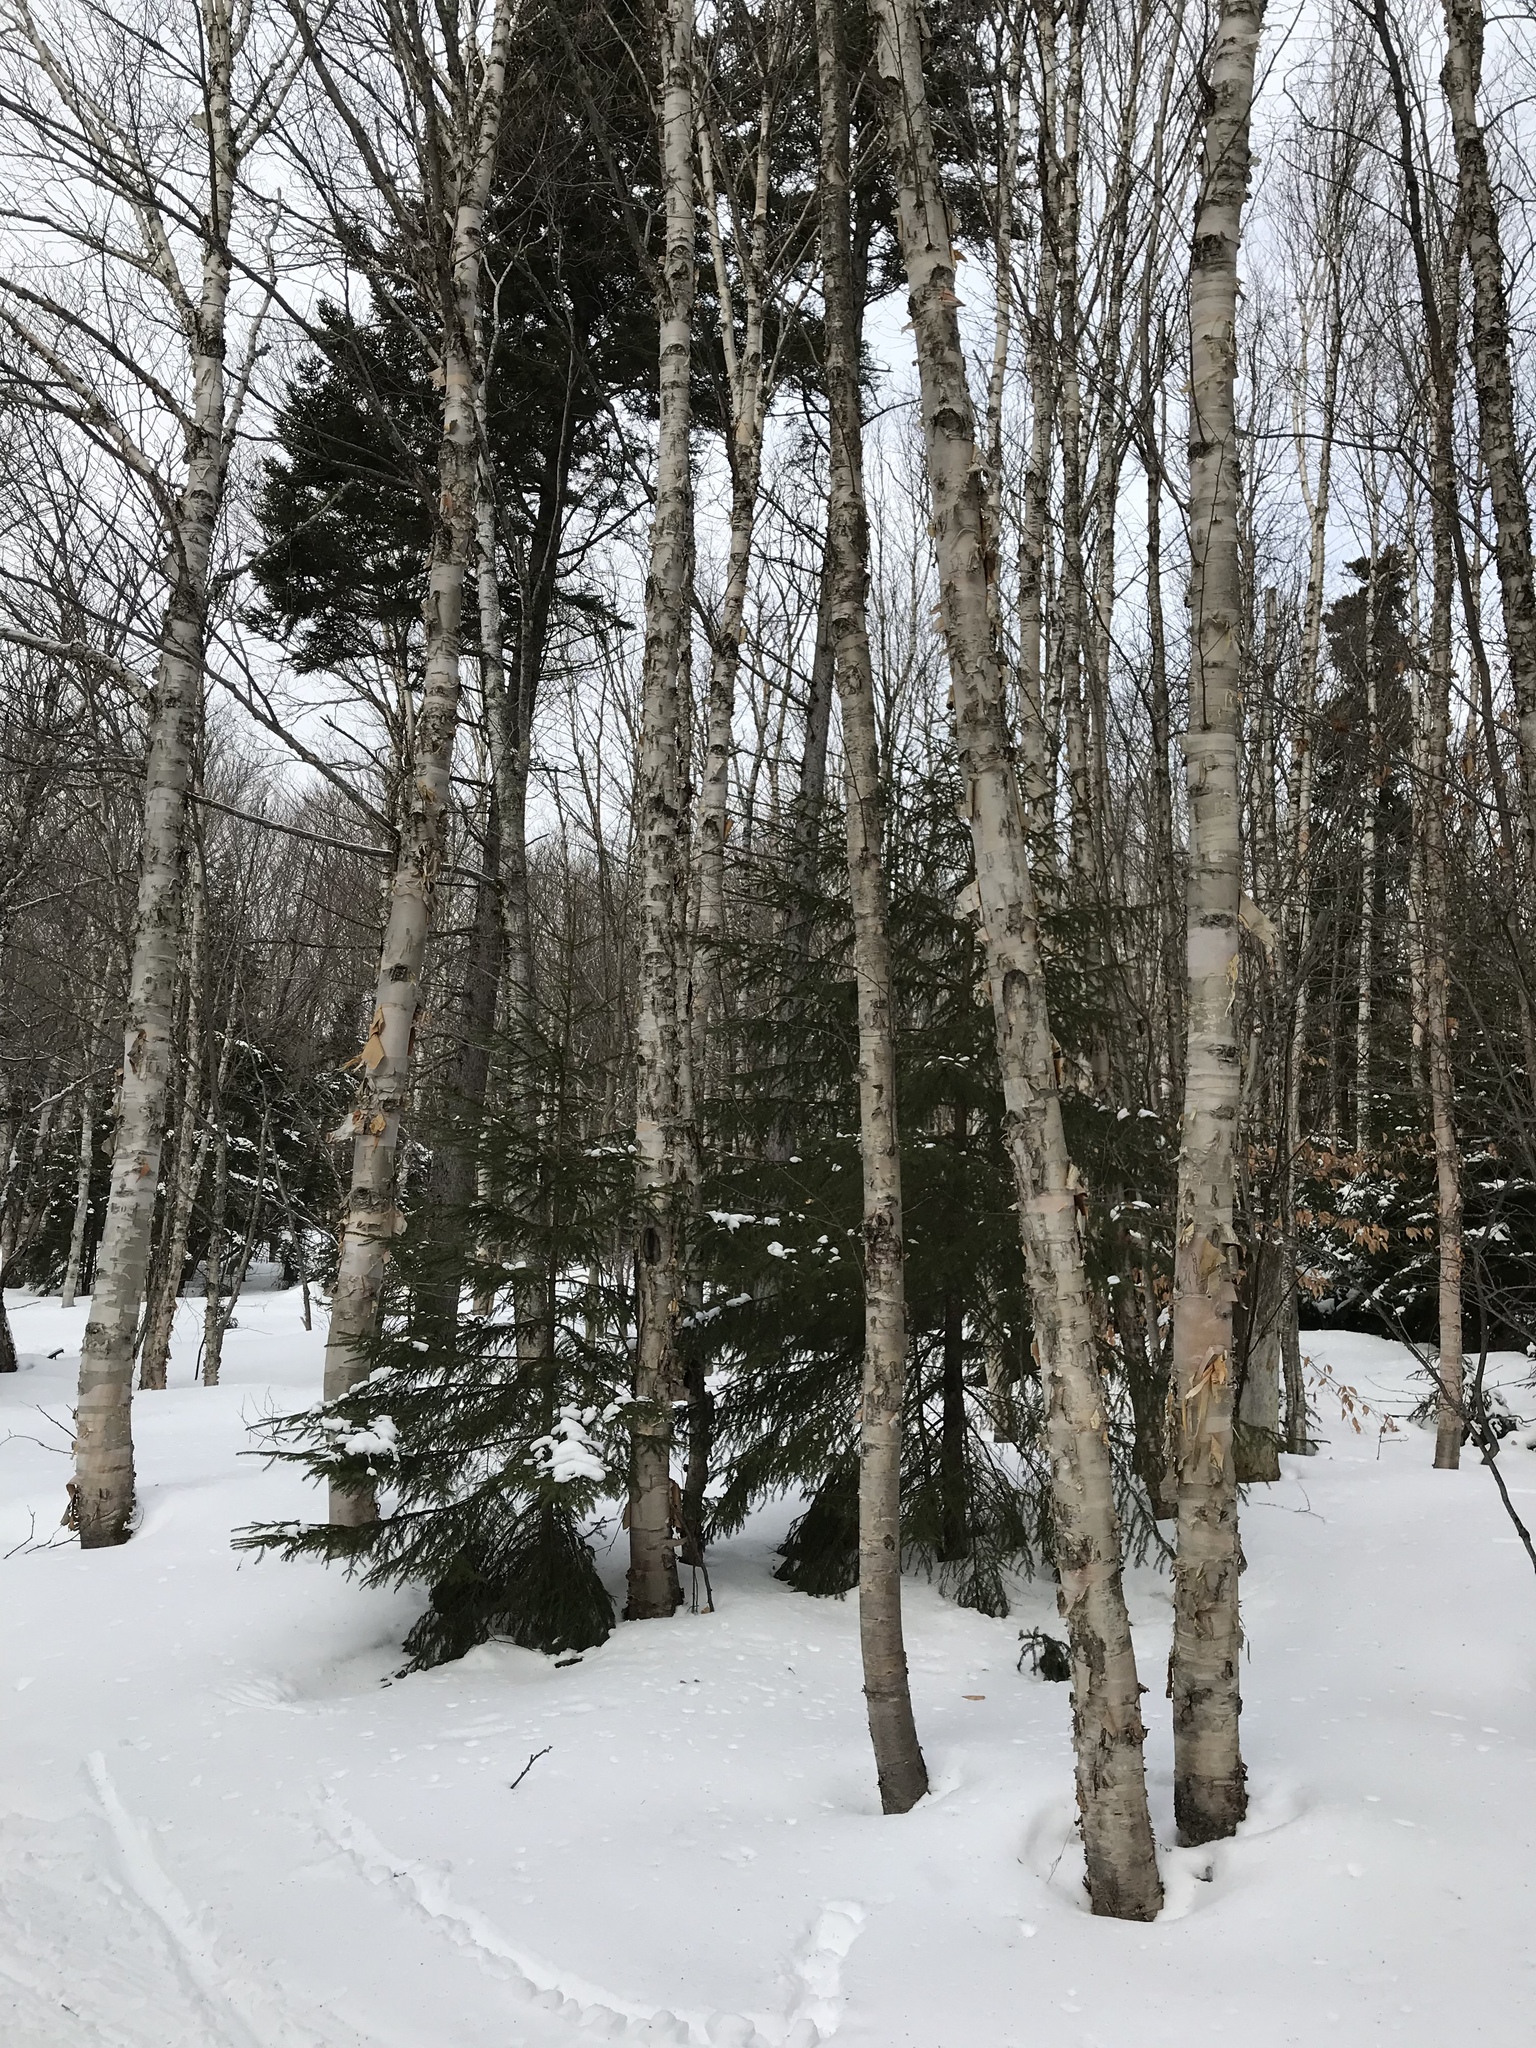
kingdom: Plantae
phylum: Tracheophyta
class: Magnoliopsida
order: Fagales
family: Betulaceae
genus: Betula
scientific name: Betula cordifolia
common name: Mountain white birch
